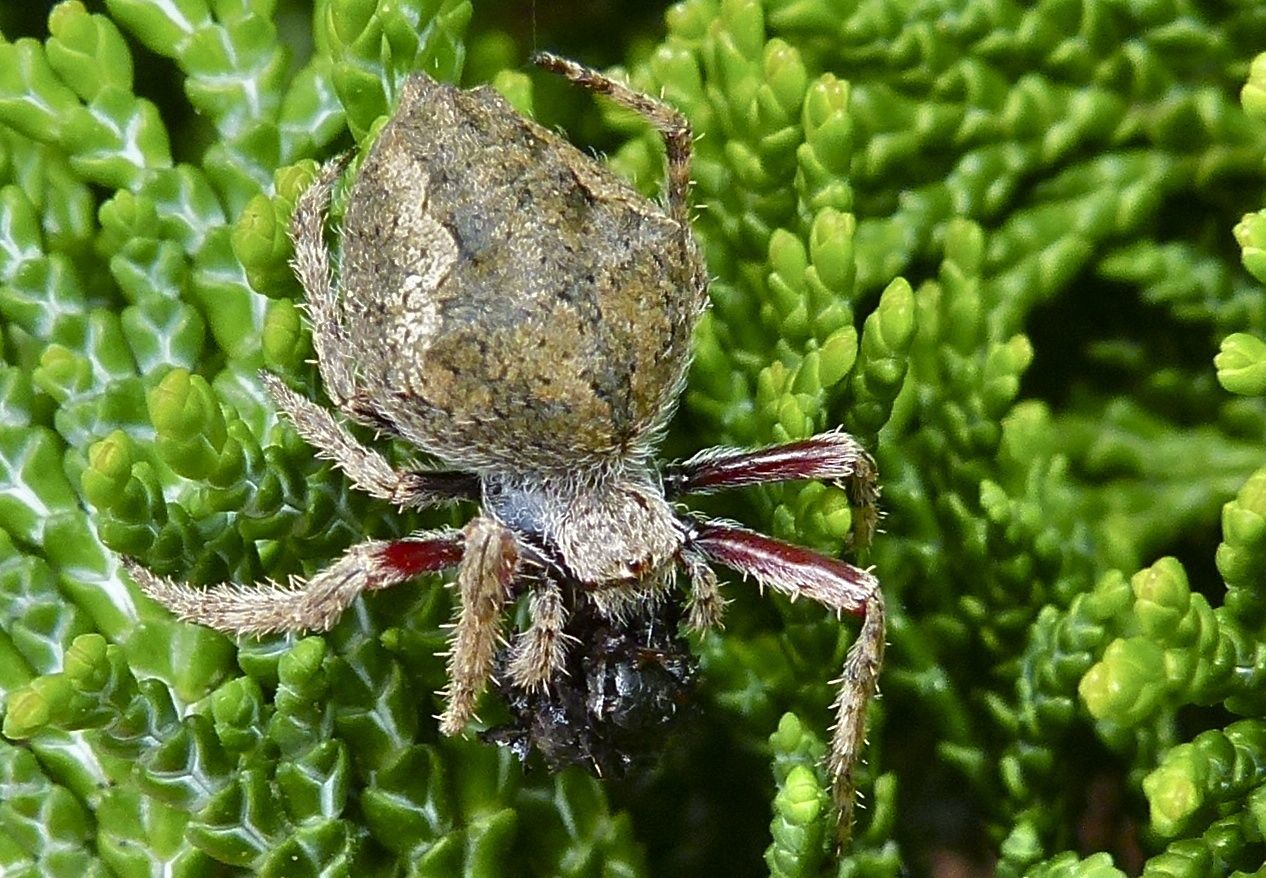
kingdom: Animalia
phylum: Arthropoda
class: Arachnida
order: Araneae
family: Araneidae
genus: Eriophora
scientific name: Eriophora pustulosa
